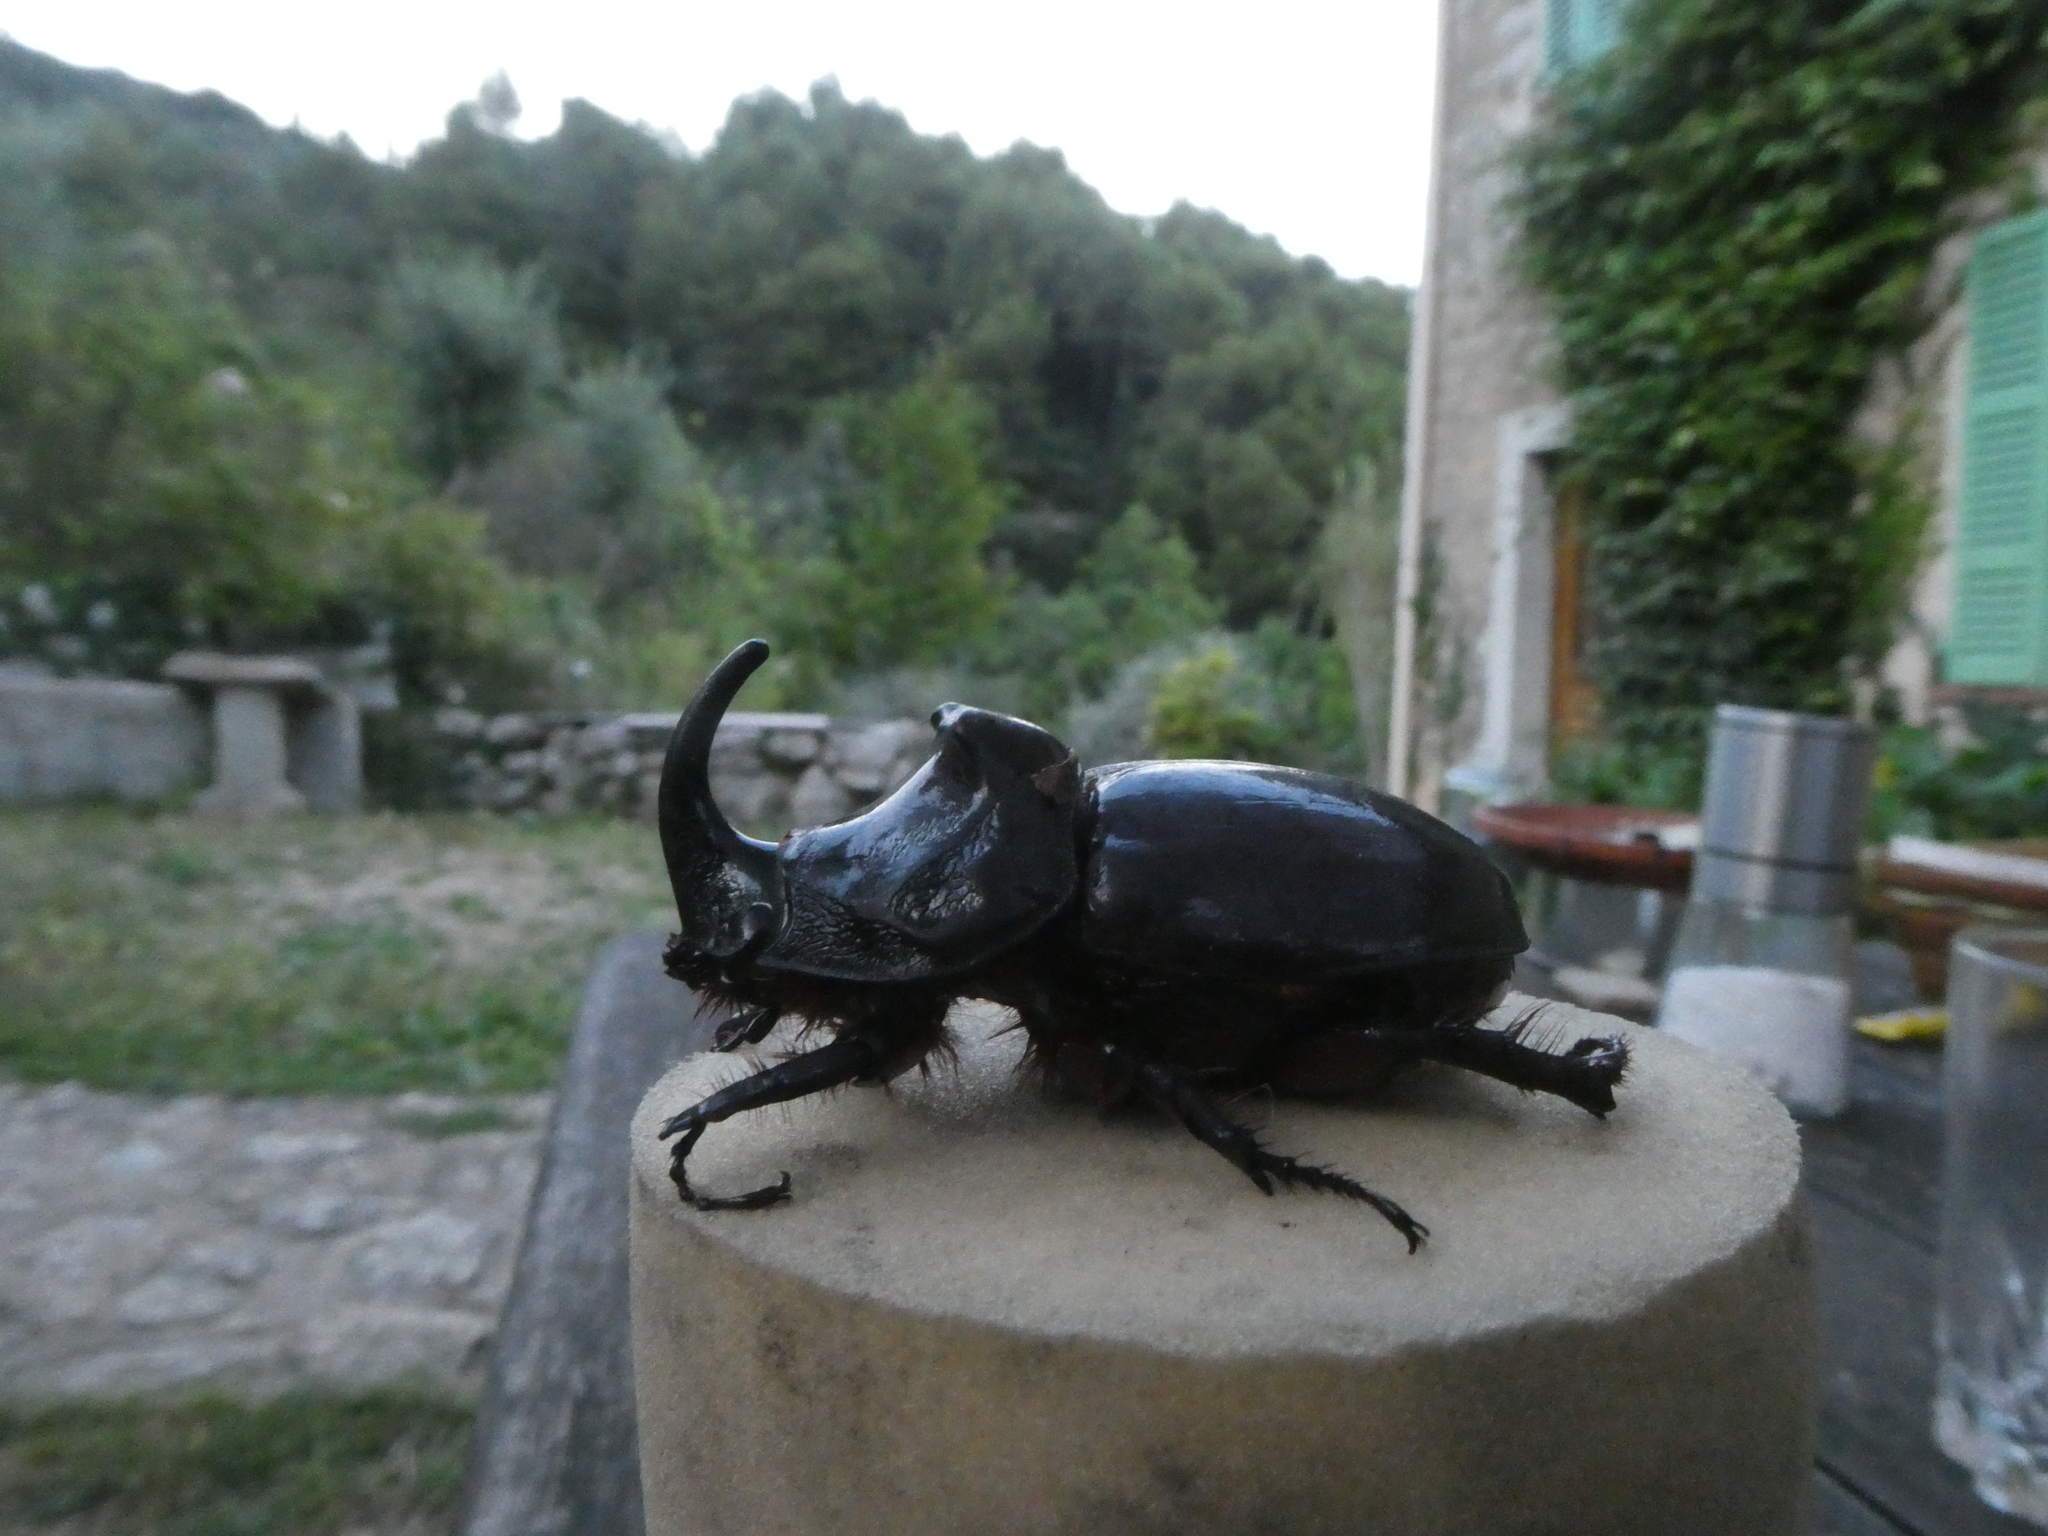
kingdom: Animalia
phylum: Arthropoda
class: Insecta
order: Coleoptera
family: Scarabaeidae
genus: Oryctes
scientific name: Oryctes nasicornis
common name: European rhinoceros beetle
